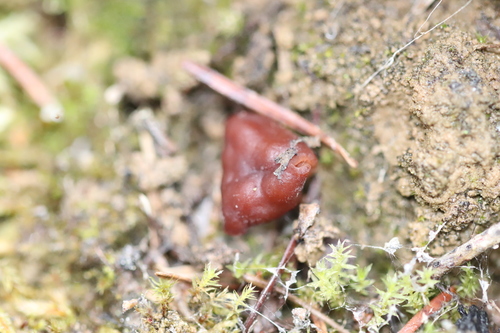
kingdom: Fungi
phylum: Ascomycota
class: Pezizomycetes
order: Pezizales
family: Discinaceae
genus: Gyromitra
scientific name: Gyromitra
